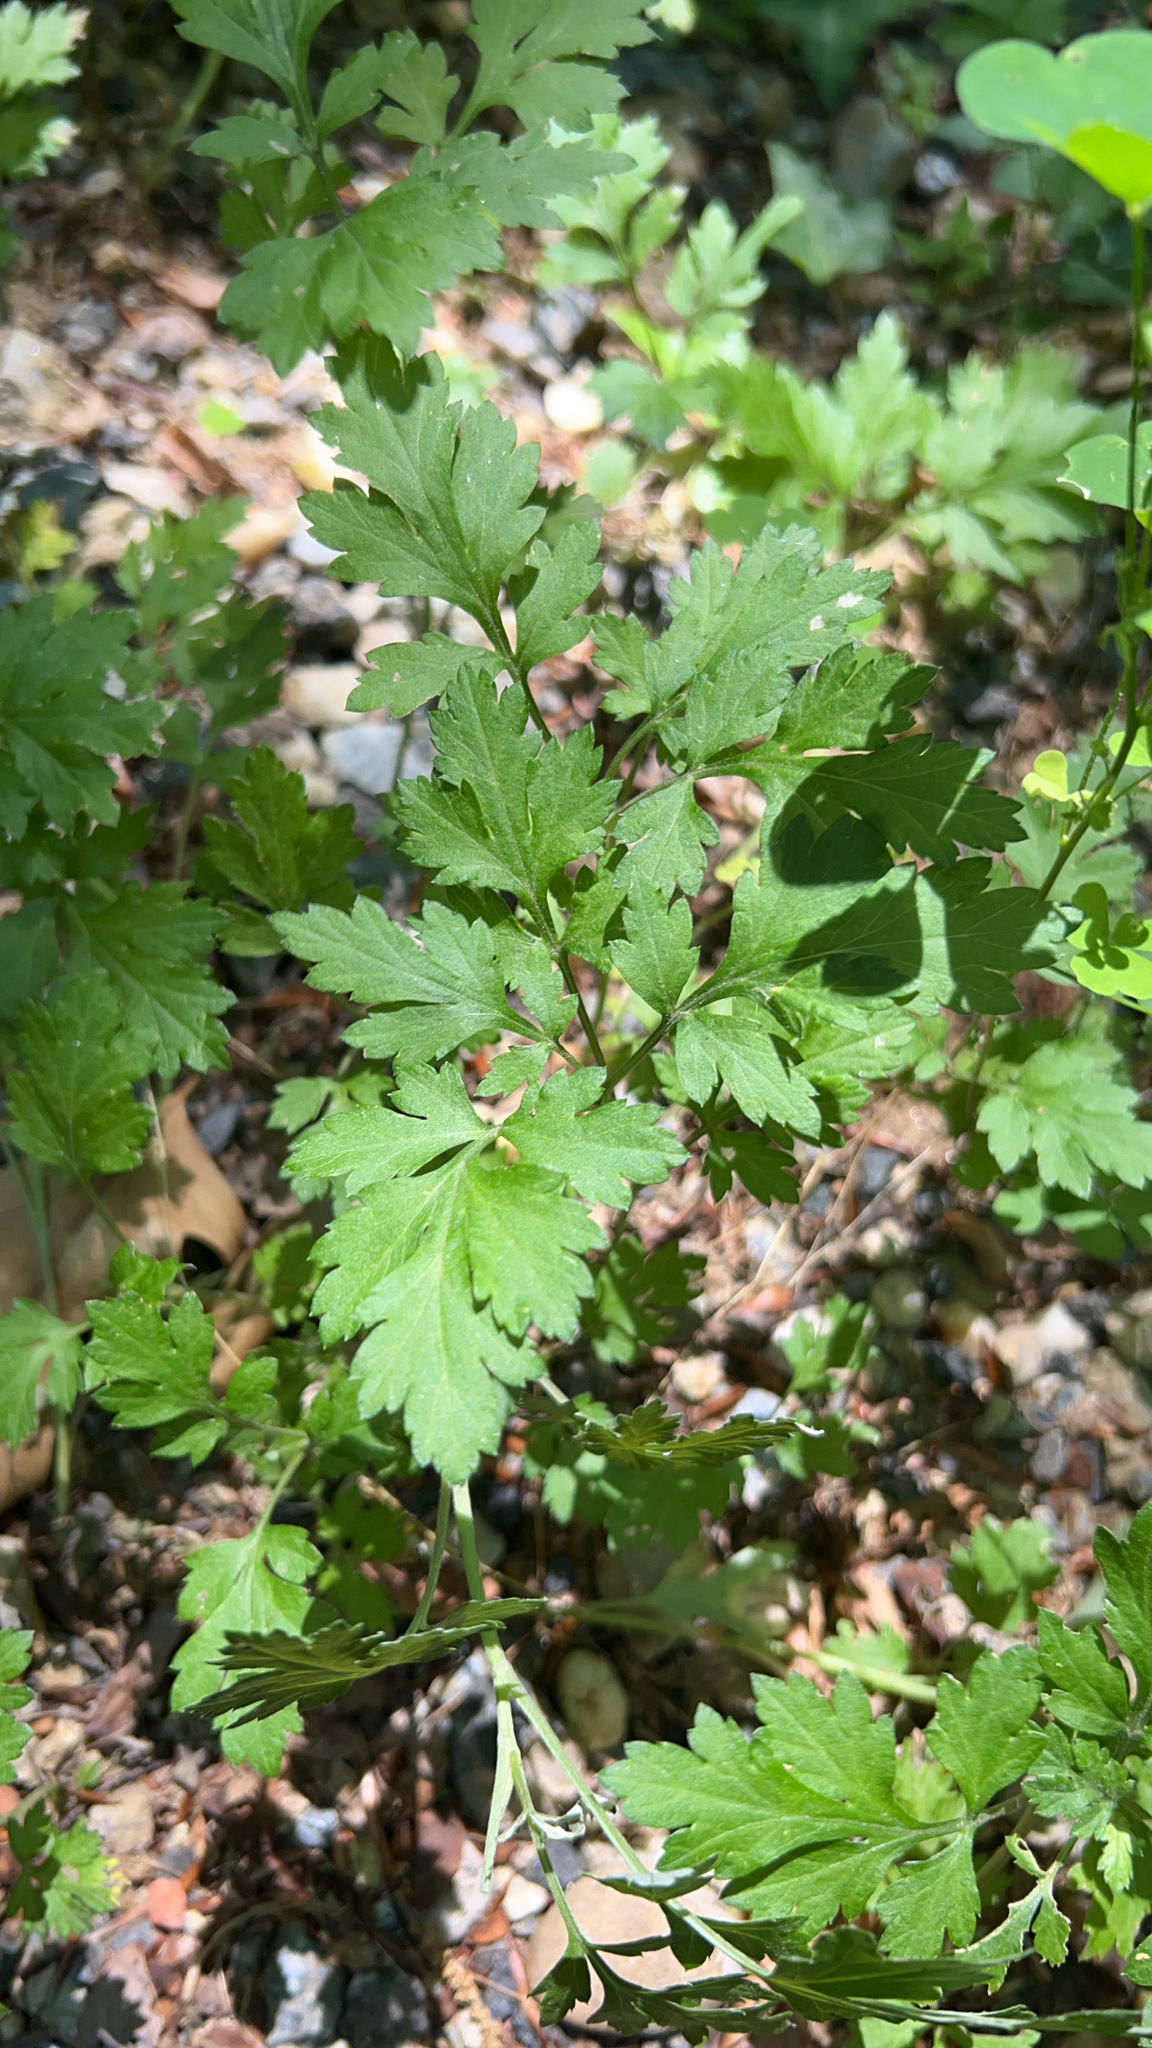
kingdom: Plantae
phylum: Tracheophyta
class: Magnoliopsida
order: Asterales
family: Asteraceae
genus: Artemisia
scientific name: Artemisia vulgaris
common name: Mugwort
